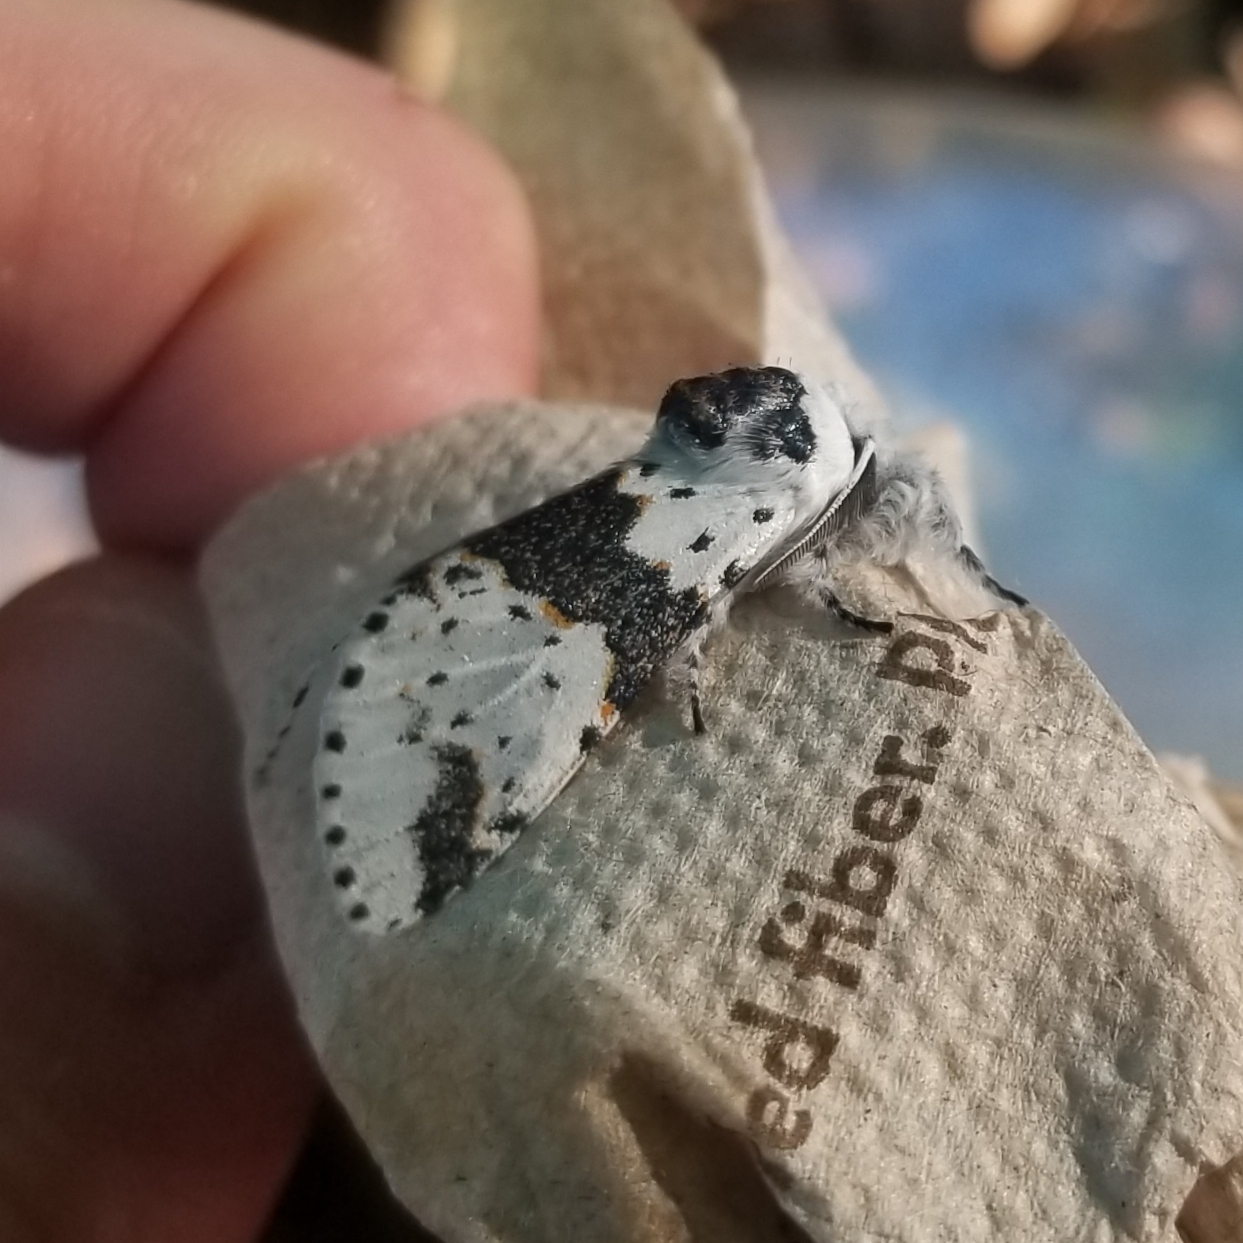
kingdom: Animalia
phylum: Arthropoda
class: Insecta
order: Lepidoptera
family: Notodontidae
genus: Furcula
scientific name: Furcula borealis
